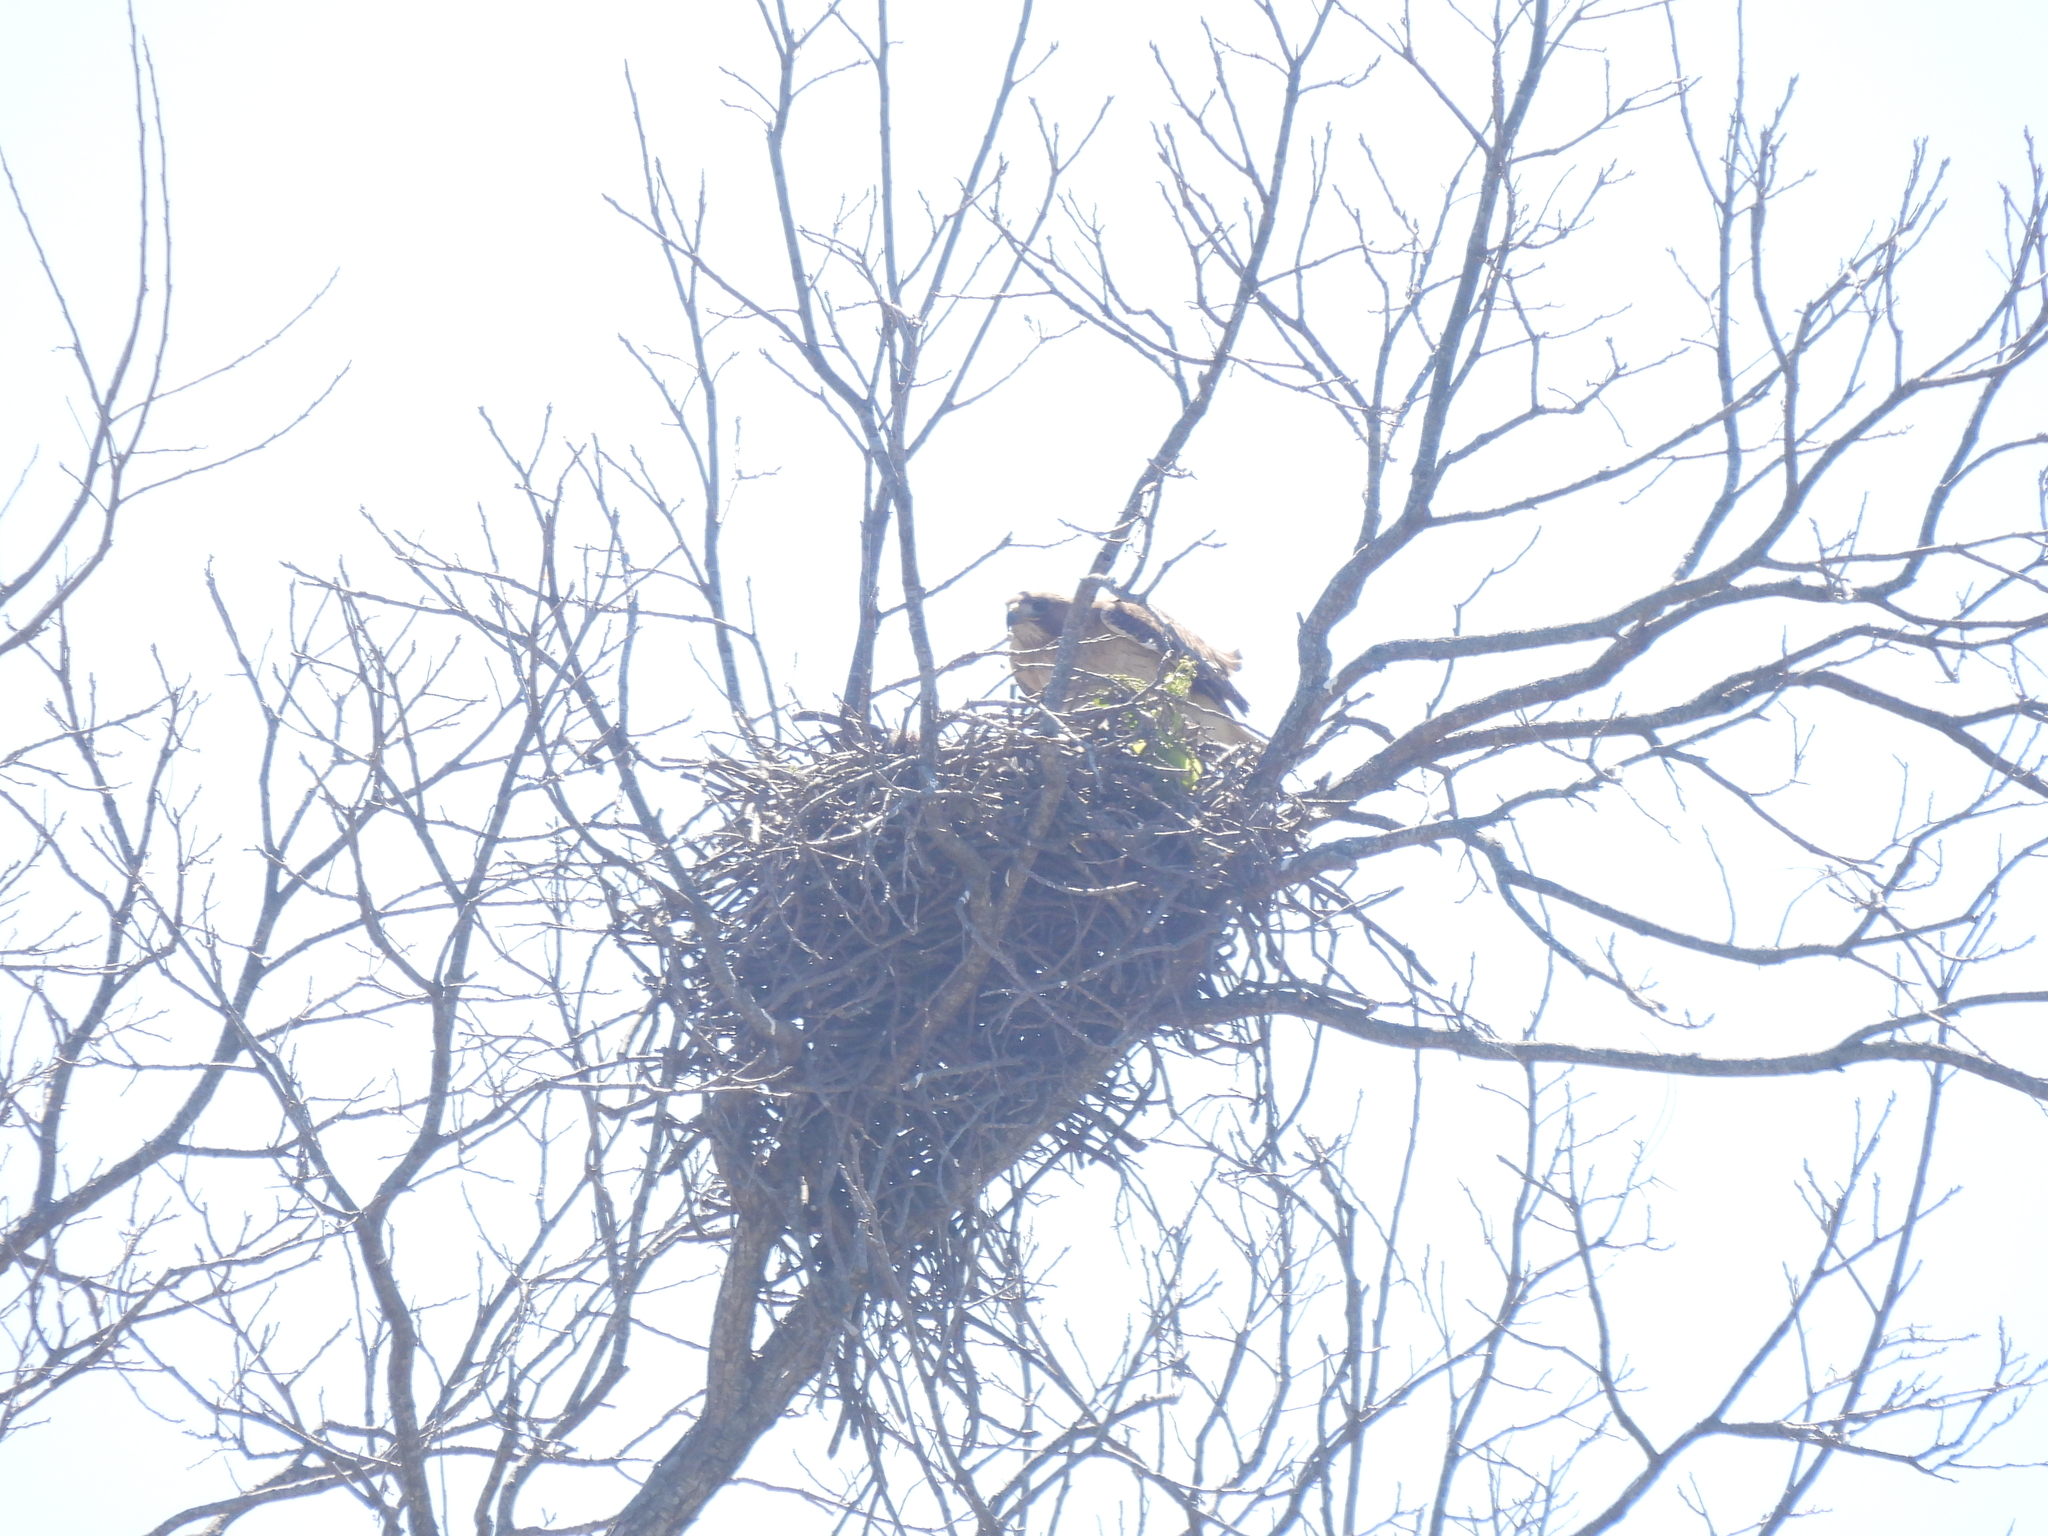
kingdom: Animalia
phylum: Chordata
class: Aves
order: Accipitriformes
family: Accipitridae
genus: Buteo
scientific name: Buteo jamaicensis
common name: Red-tailed hawk
